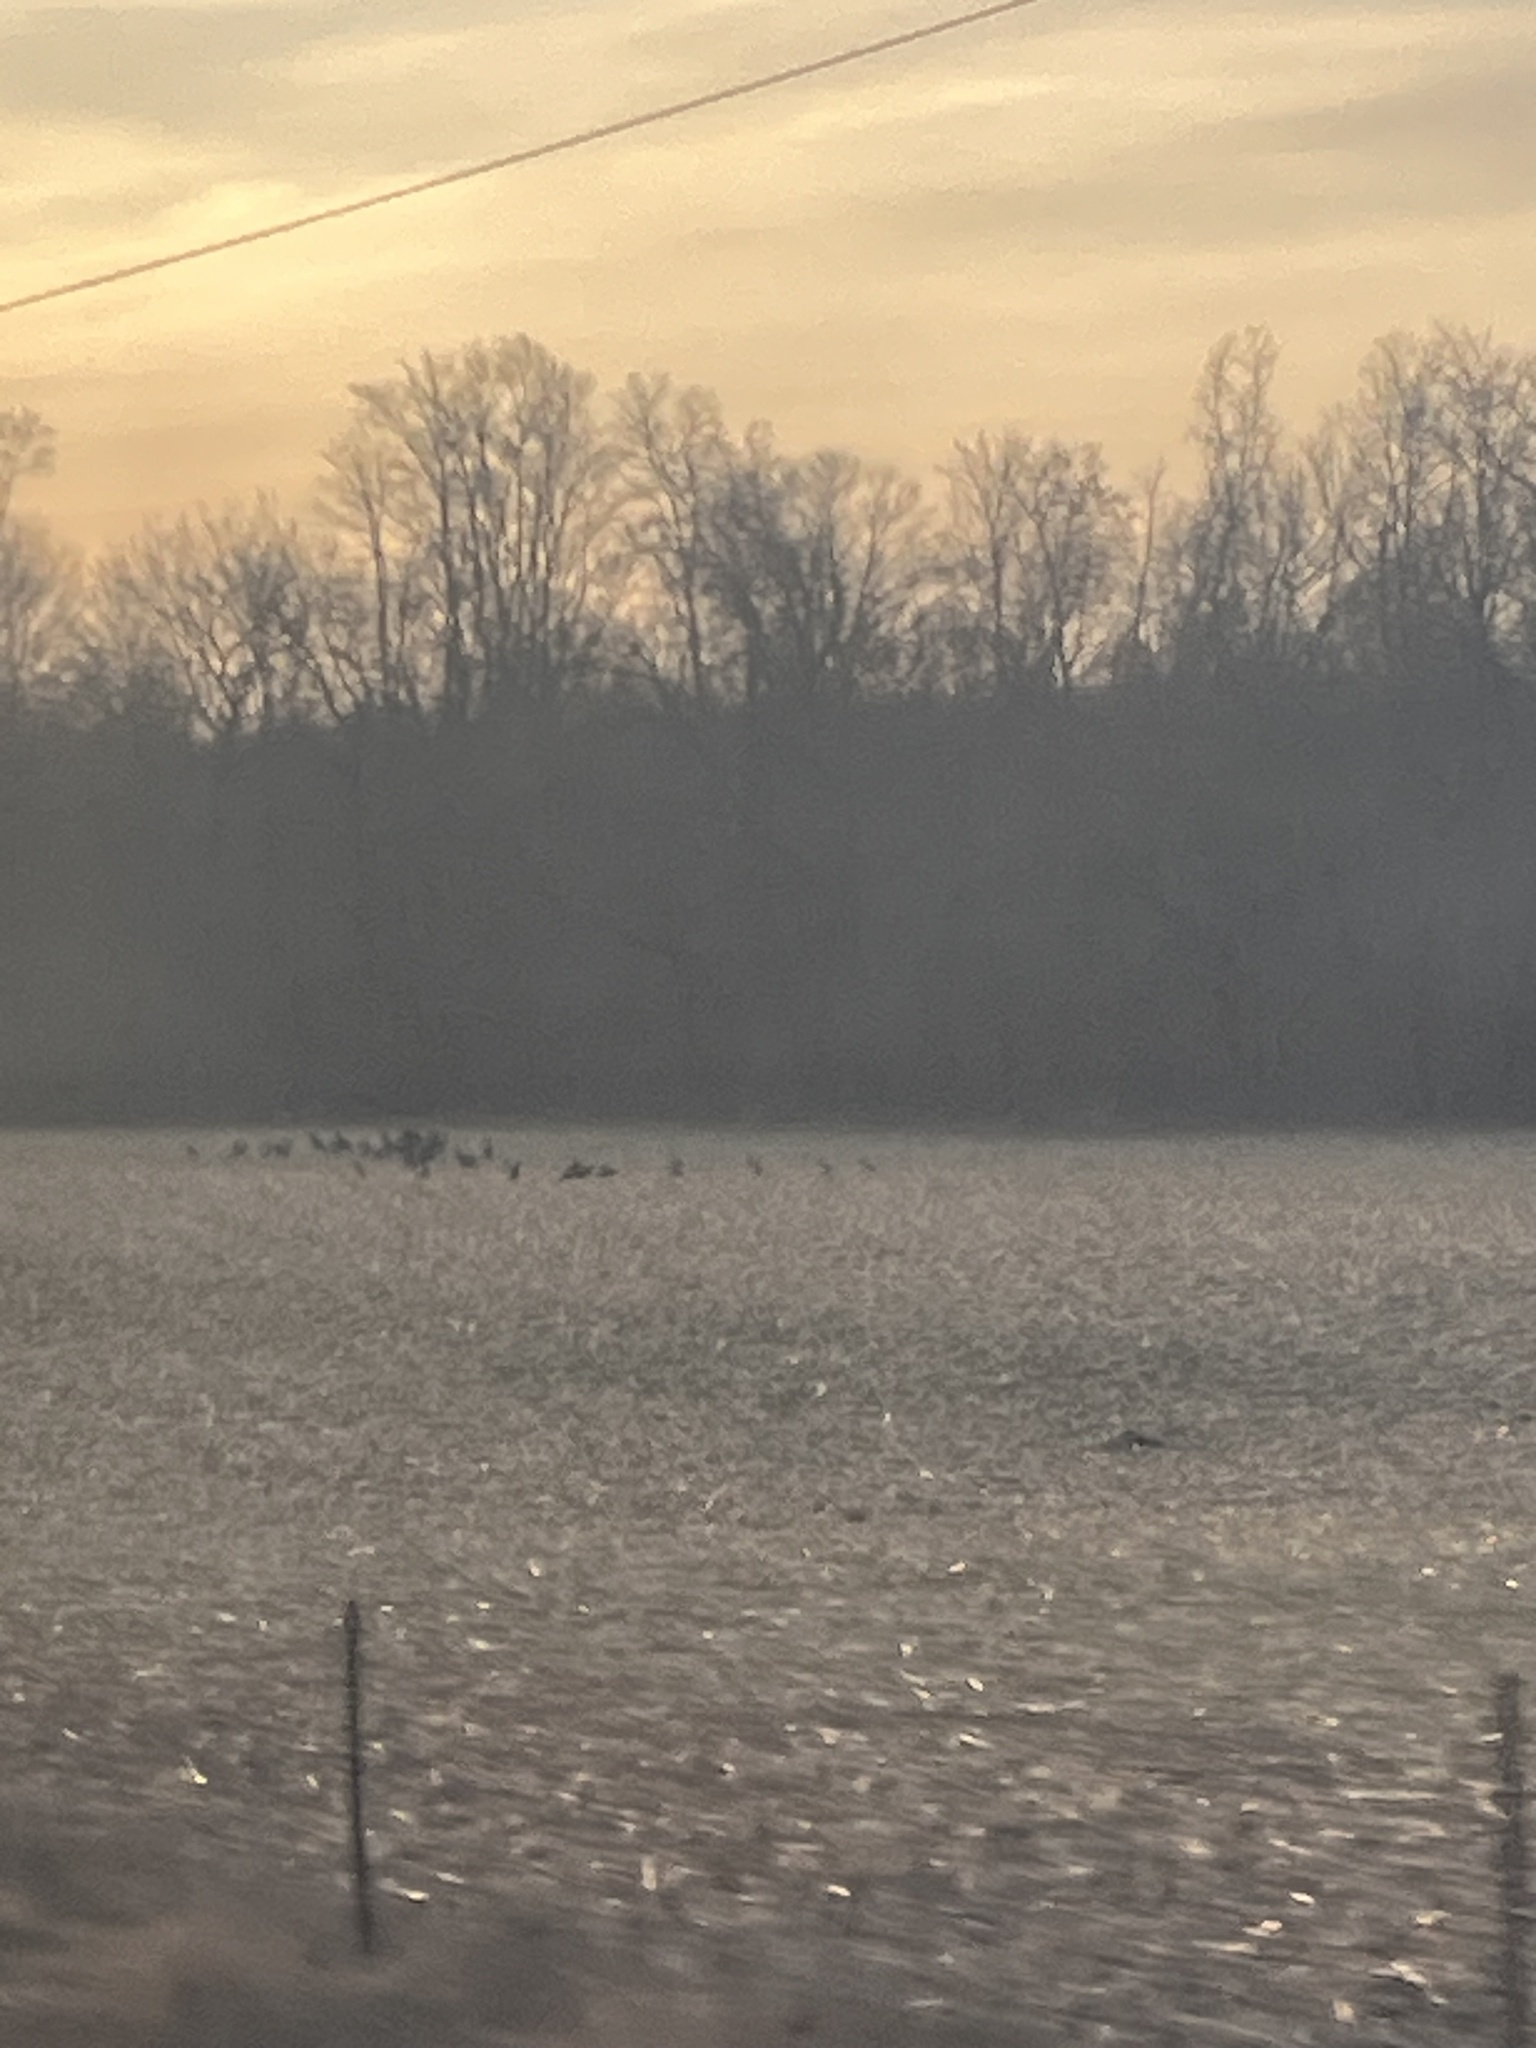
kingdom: Animalia
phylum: Chordata
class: Aves
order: Galliformes
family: Phasianidae
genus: Meleagris
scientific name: Meleagris gallopavo
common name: Wild turkey
